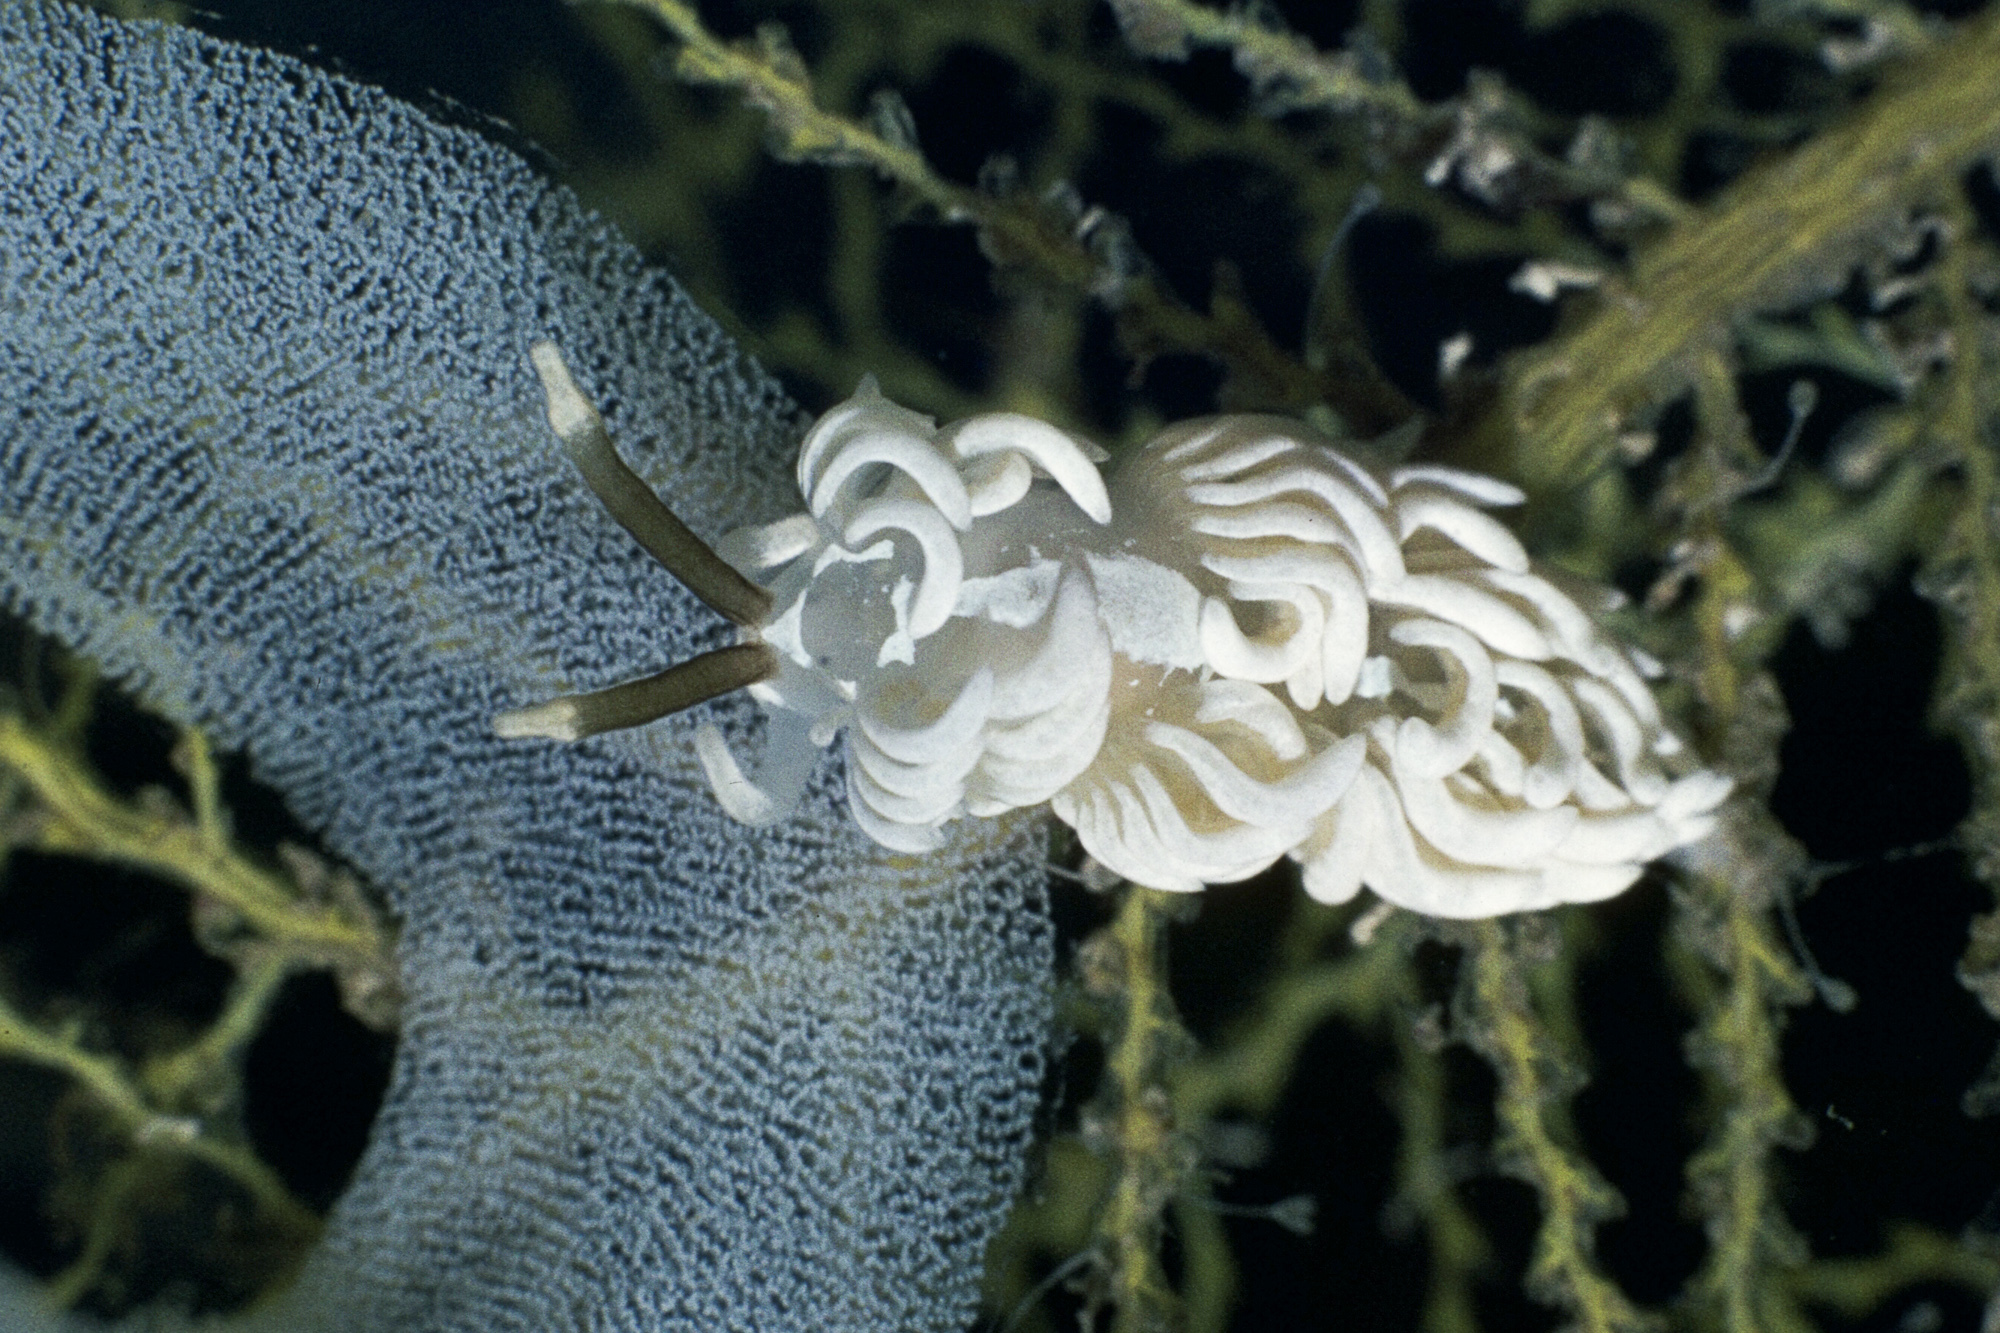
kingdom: Animalia
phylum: Mollusca
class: Gastropoda
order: Nudibranchia
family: Facelinidae
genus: Favorinus
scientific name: Favorinus branchialis
